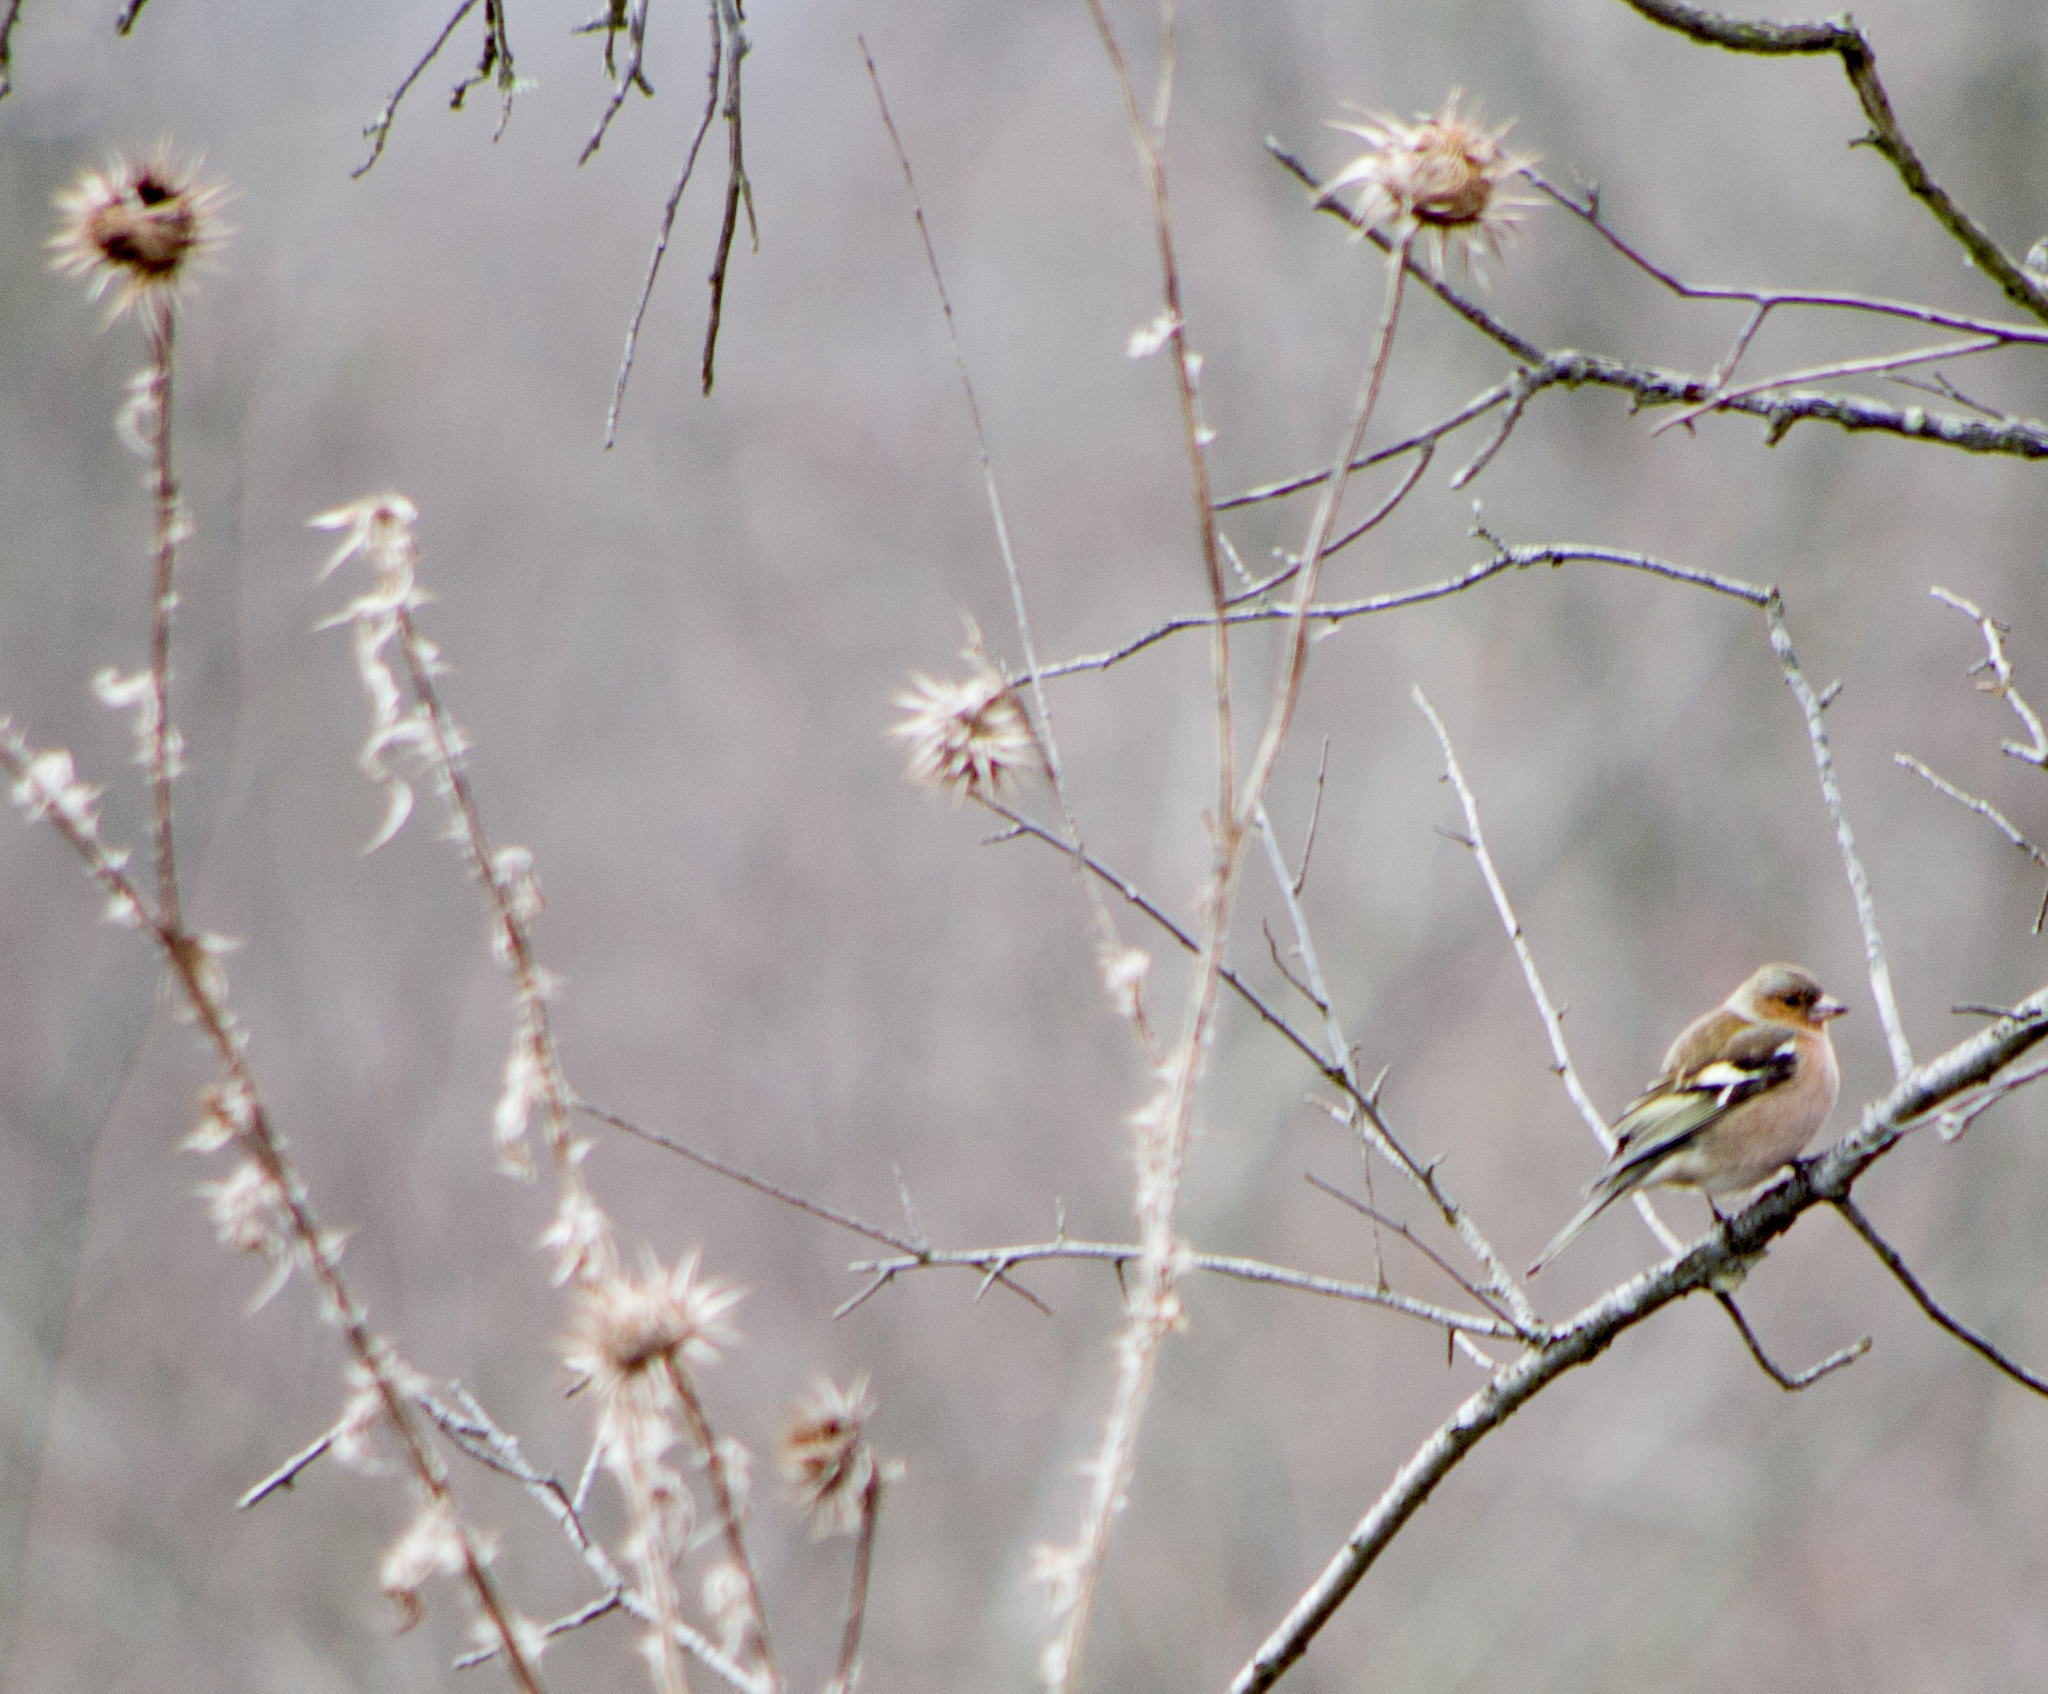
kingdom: Animalia
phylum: Chordata
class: Aves
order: Passeriformes
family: Fringillidae
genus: Fringilla
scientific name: Fringilla coelebs
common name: Common chaffinch
